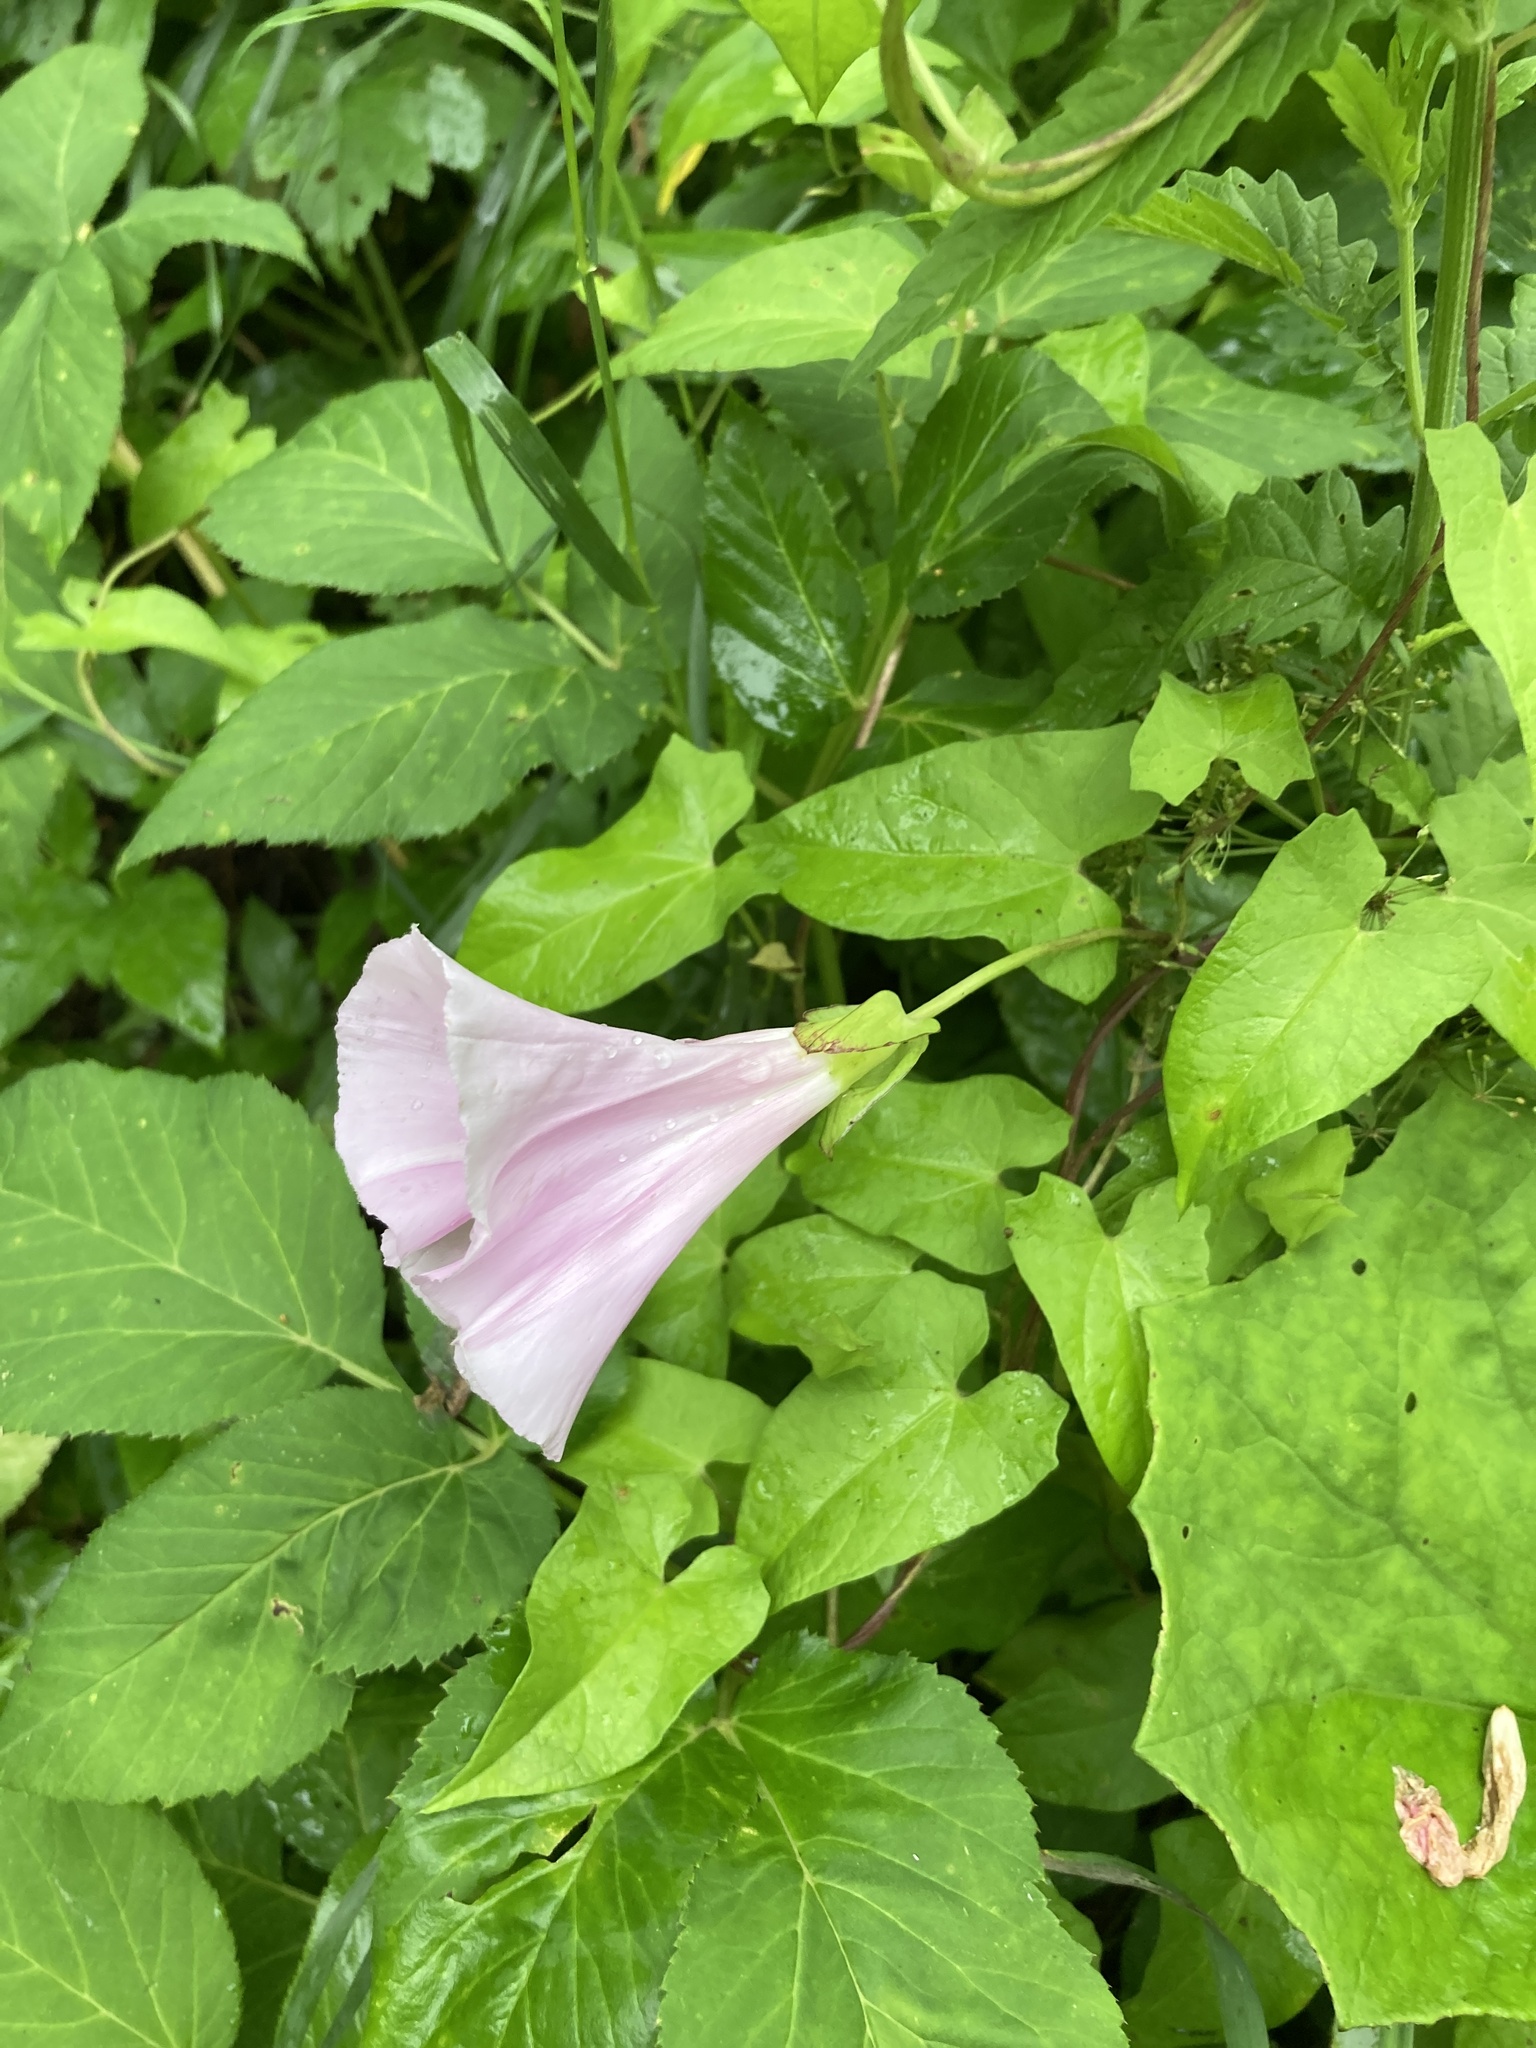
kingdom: Plantae
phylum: Tracheophyta
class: Magnoliopsida
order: Solanales
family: Convolvulaceae
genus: Calystegia
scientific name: Calystegia sepium
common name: Hedge bindweed
